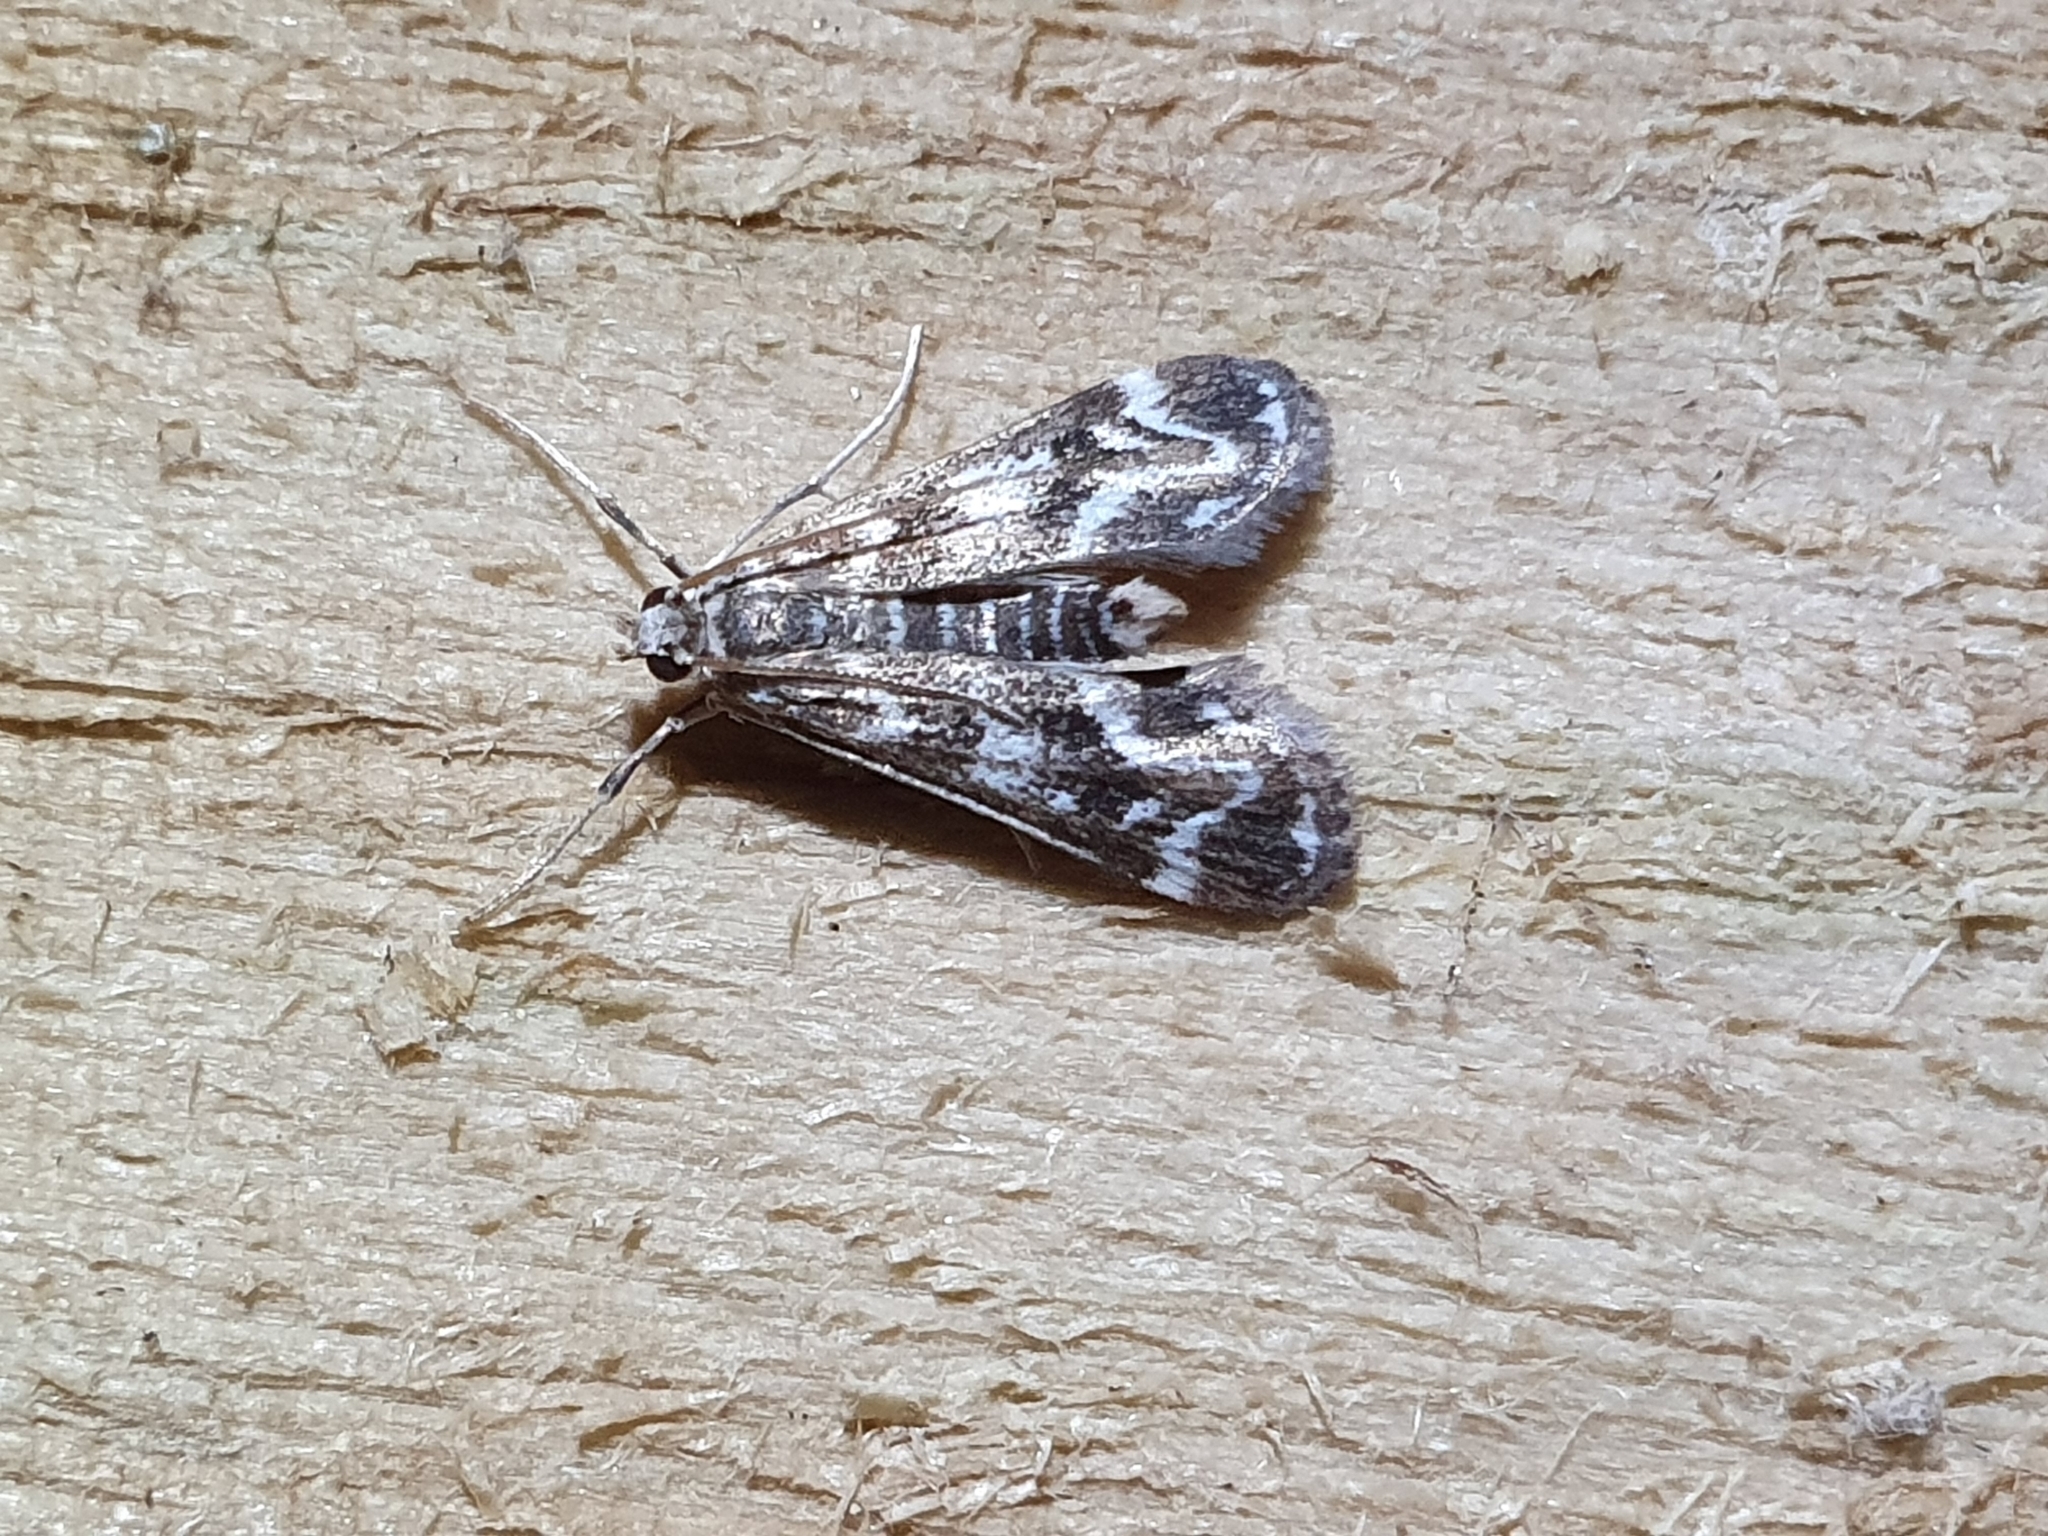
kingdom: Animalia
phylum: Arthropoda
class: Insecta
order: Lepidoptera
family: Crambidae
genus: Hygraula
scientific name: Hygraula nitens
